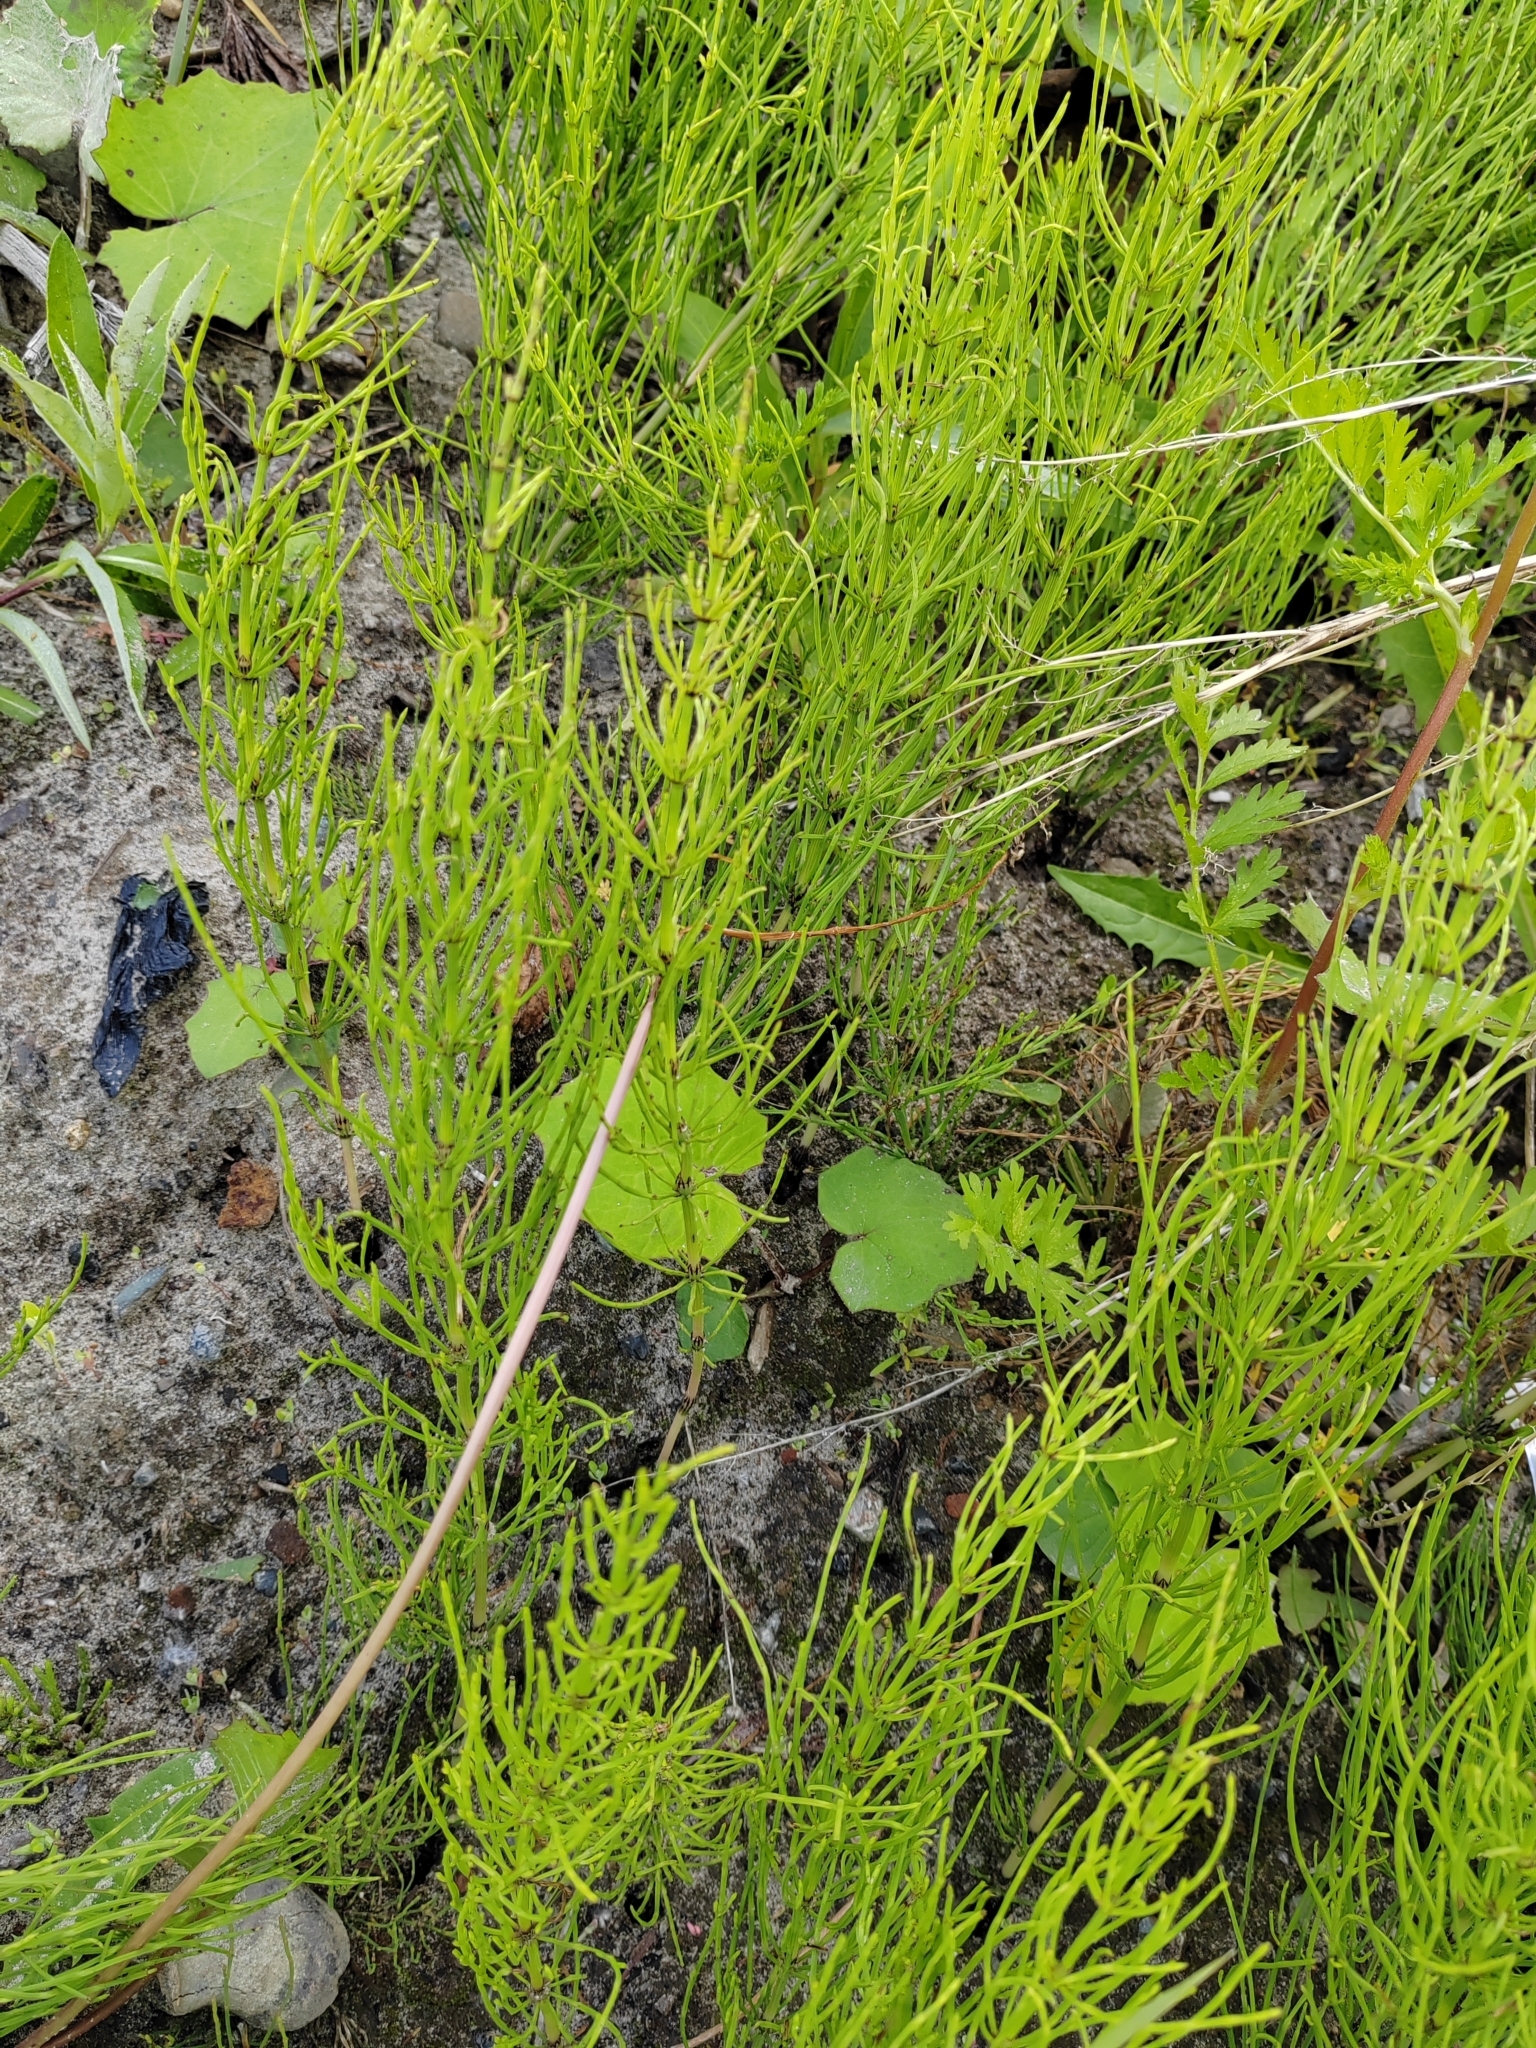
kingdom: Plantae
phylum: Tracheophyta
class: Polypodiopsida
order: Equisetales
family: Equisetaceae
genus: Equisetum
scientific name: Equisetum arvense
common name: Field horsetail
